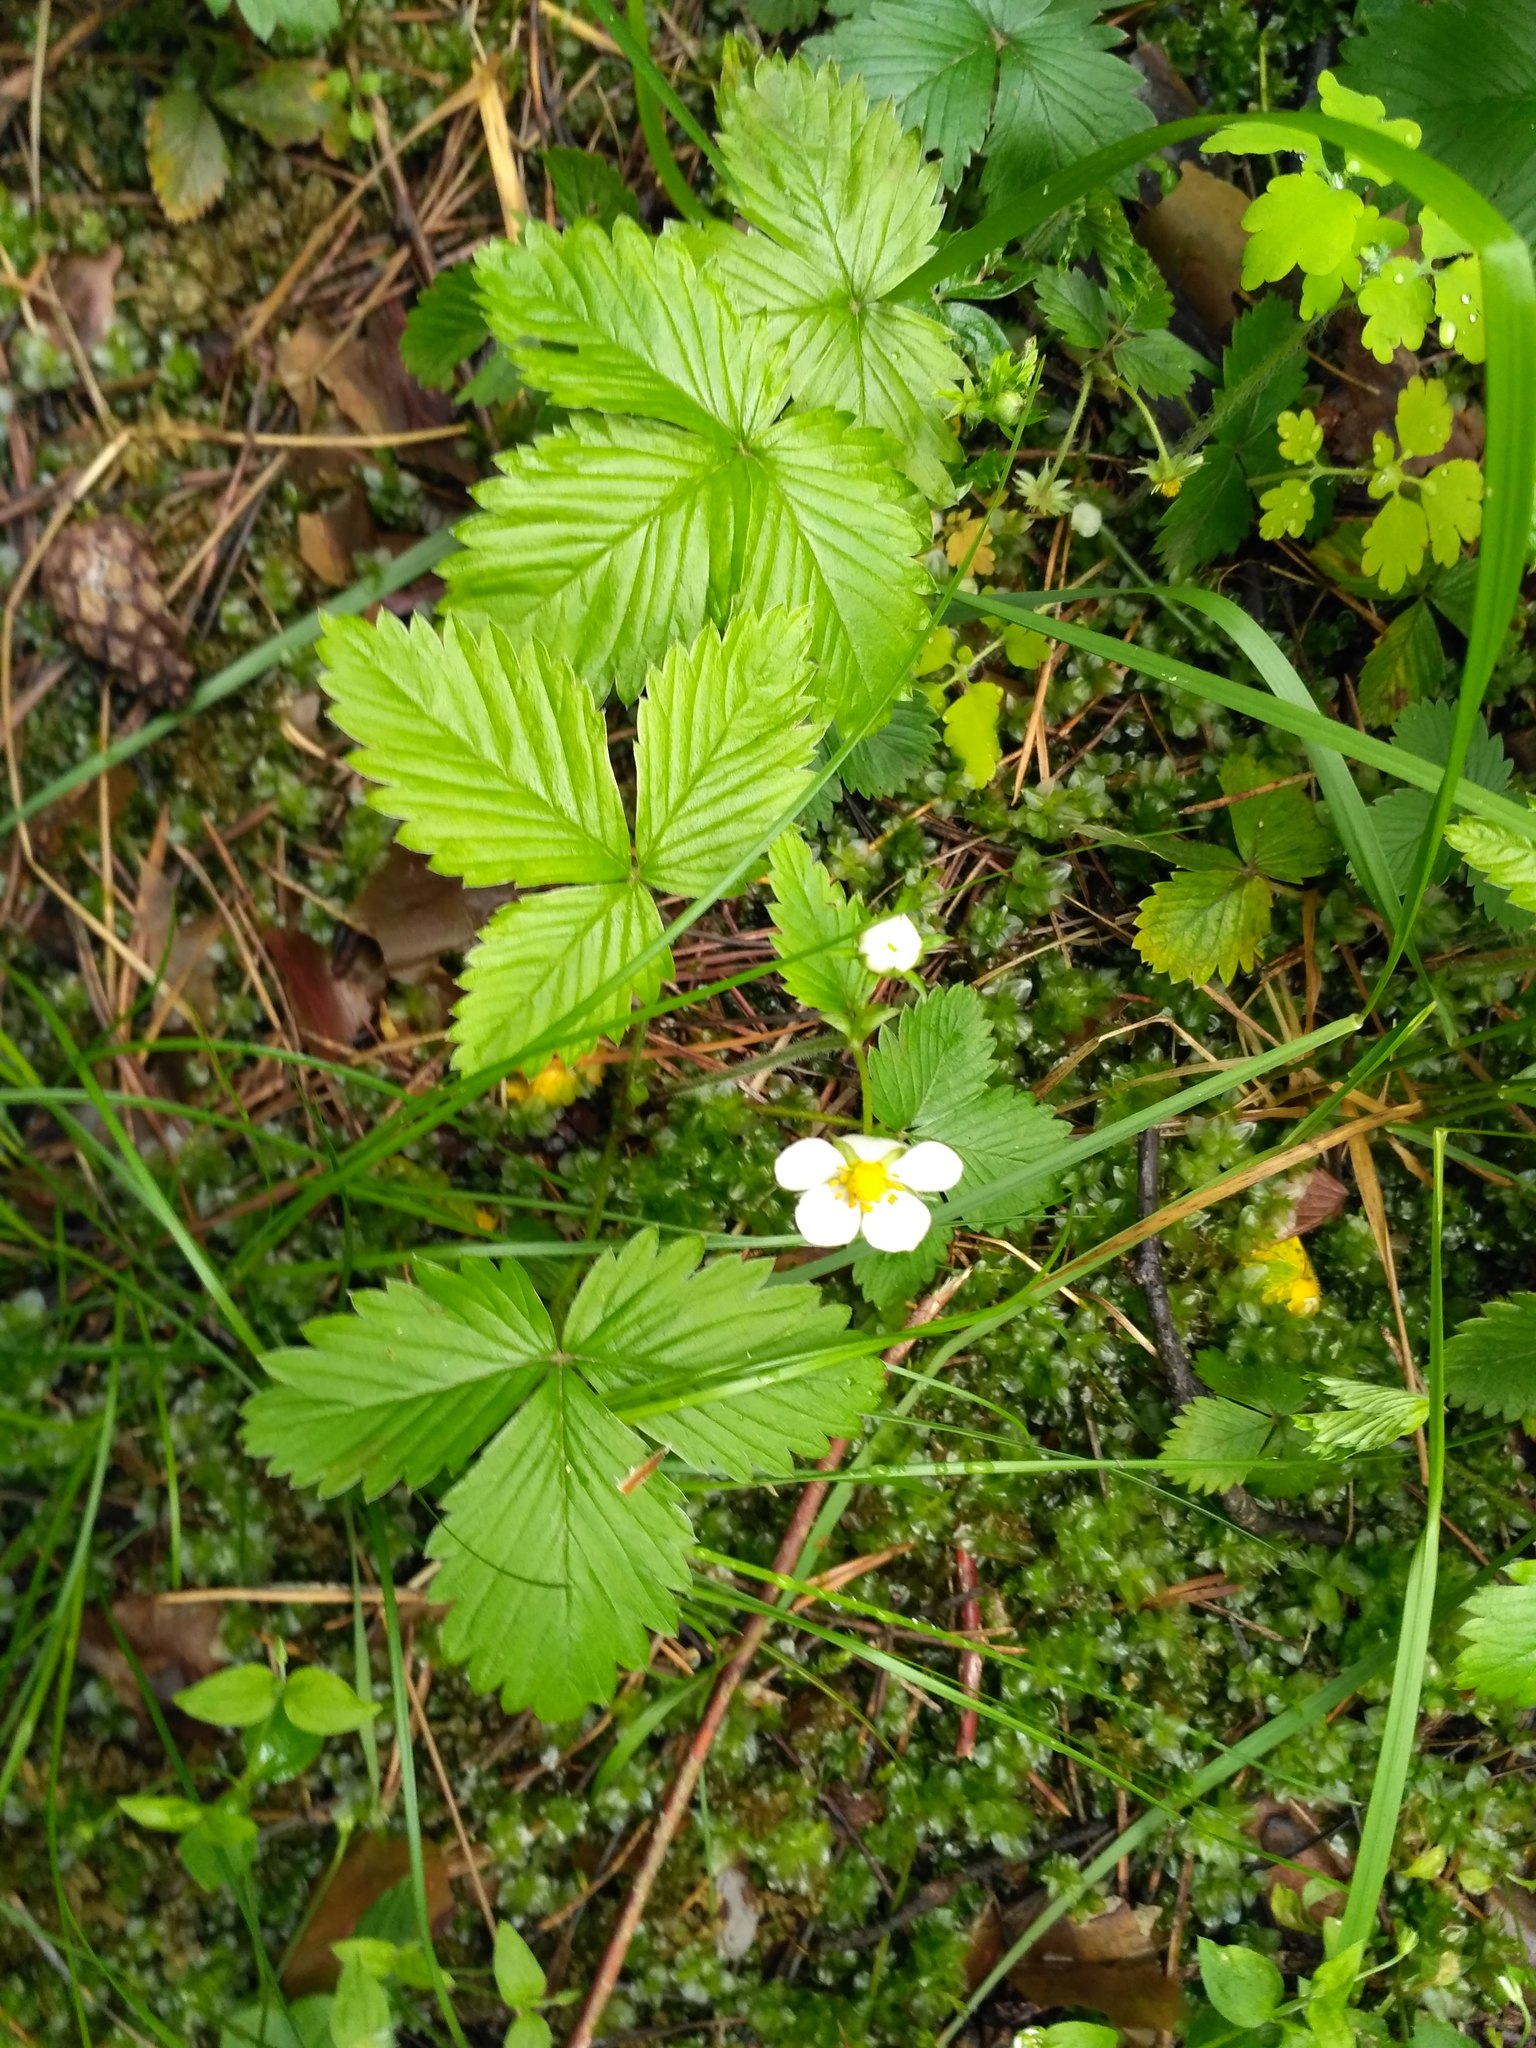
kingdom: Plantae
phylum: Tracheophyta
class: Magnoliopsida
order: Rosales
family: Rosaceae
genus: Fragaria
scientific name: Fragaria vesca
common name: Wild strawberry
